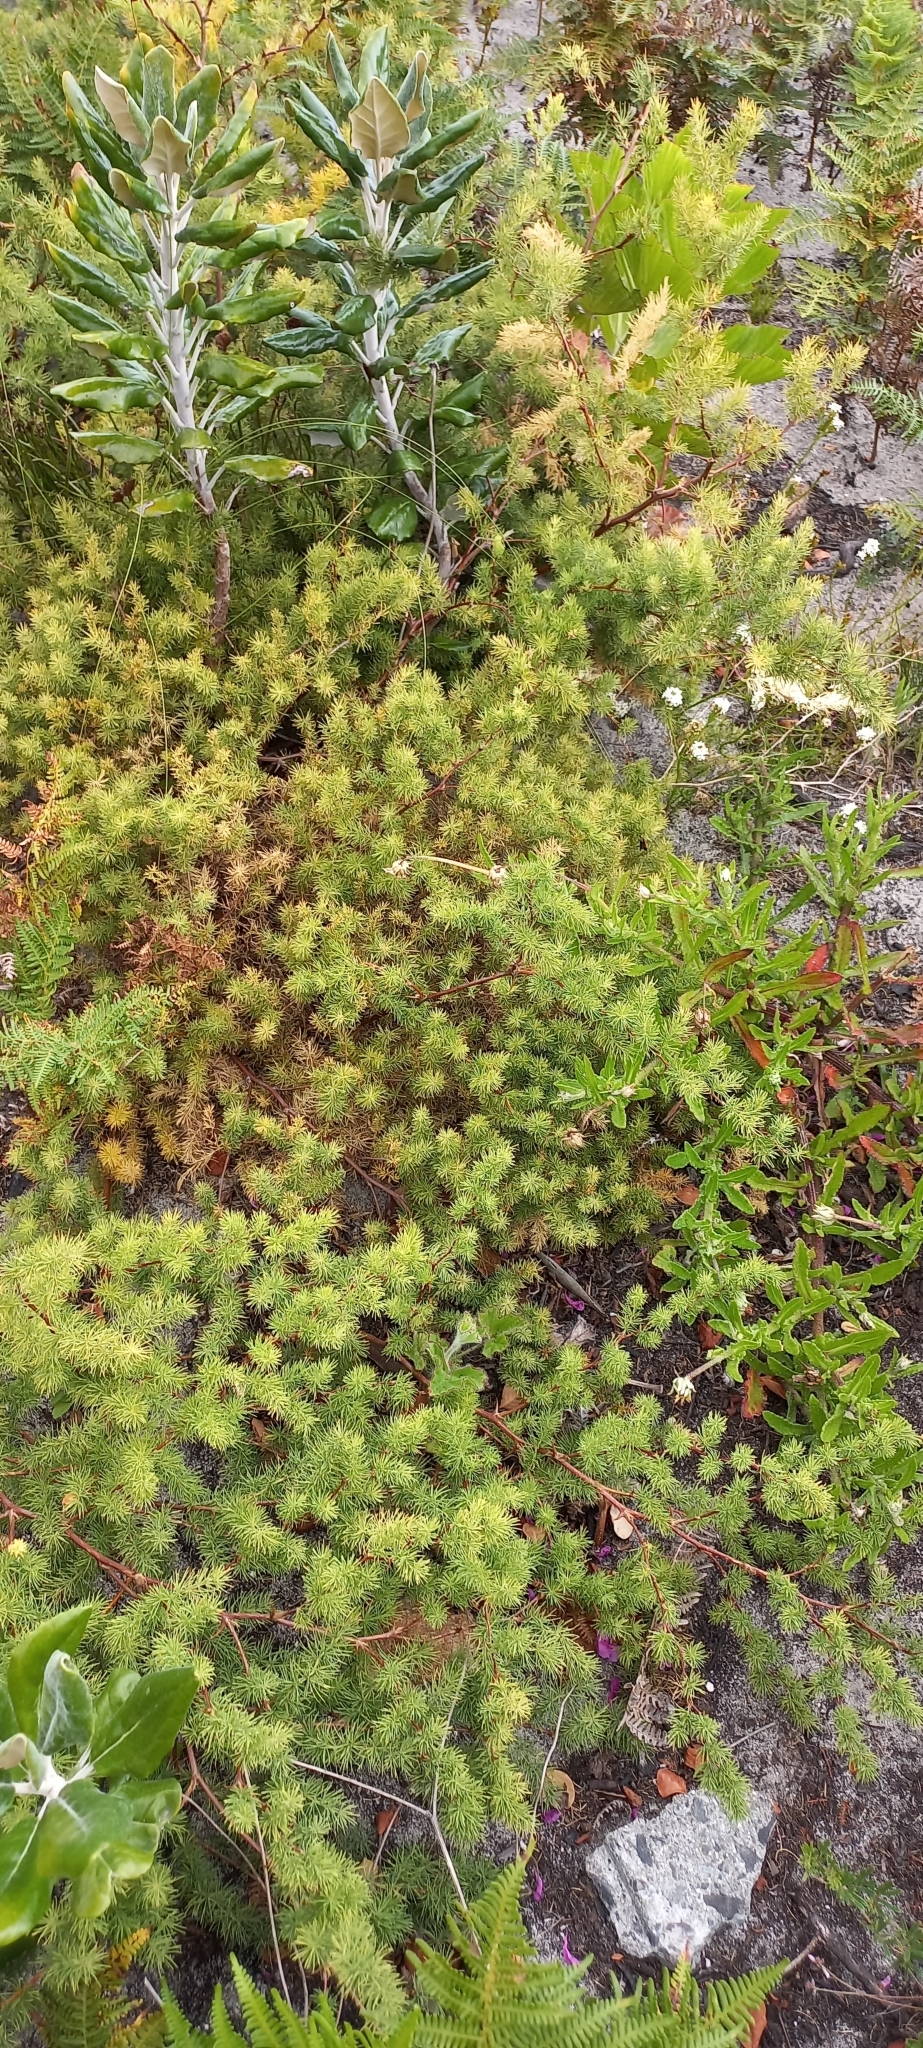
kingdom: Plantae
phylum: Tracheophyta
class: Liliopsida
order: Asparagales
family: Asparagaceae
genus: Asparagus
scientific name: Asparagus rubicundus
